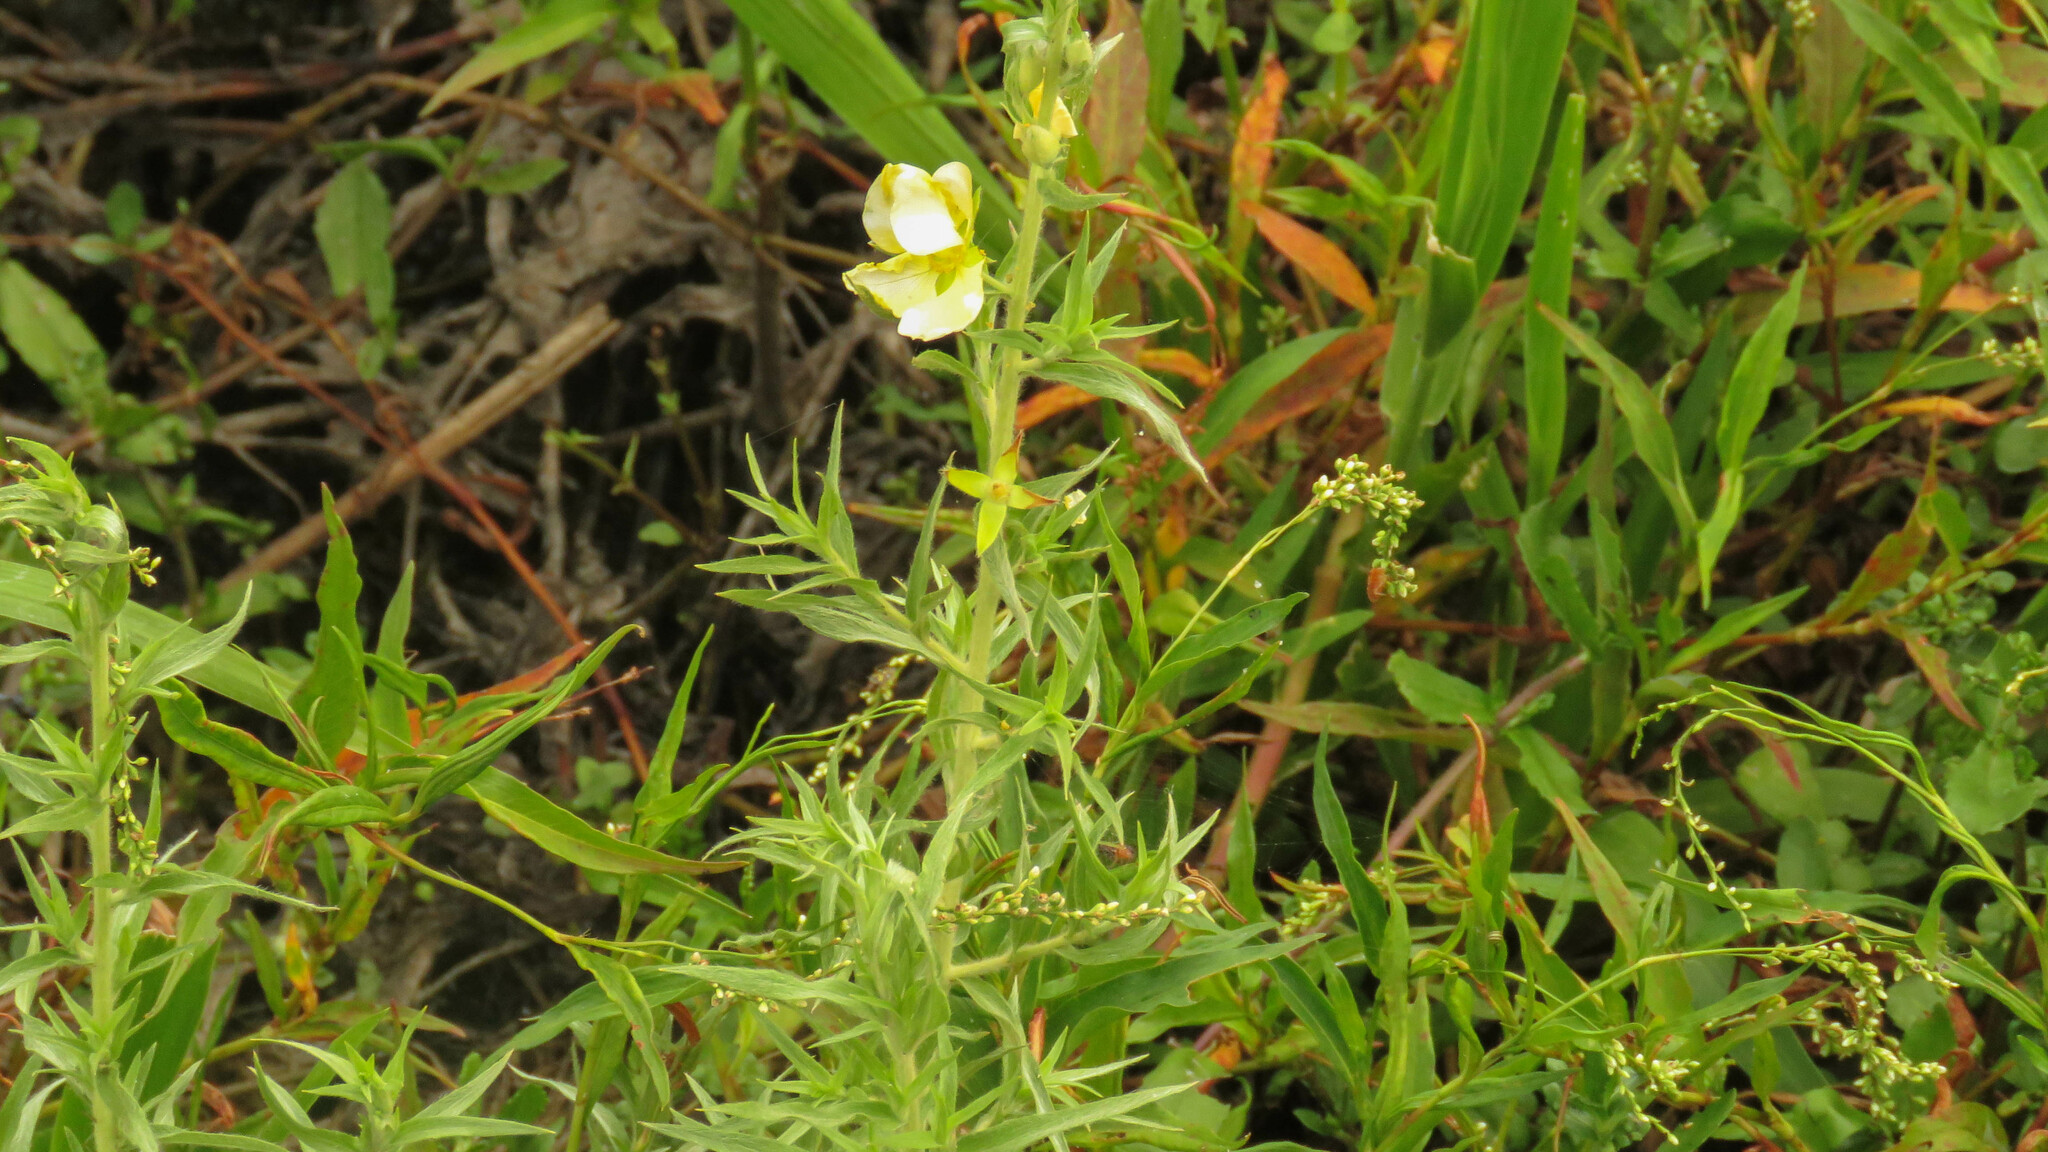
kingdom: Plantae
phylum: Tracheophyta
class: Magnoliopsida
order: Myrtales
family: Onagraceae
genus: Ludwigia
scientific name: Ludwigia sericea
